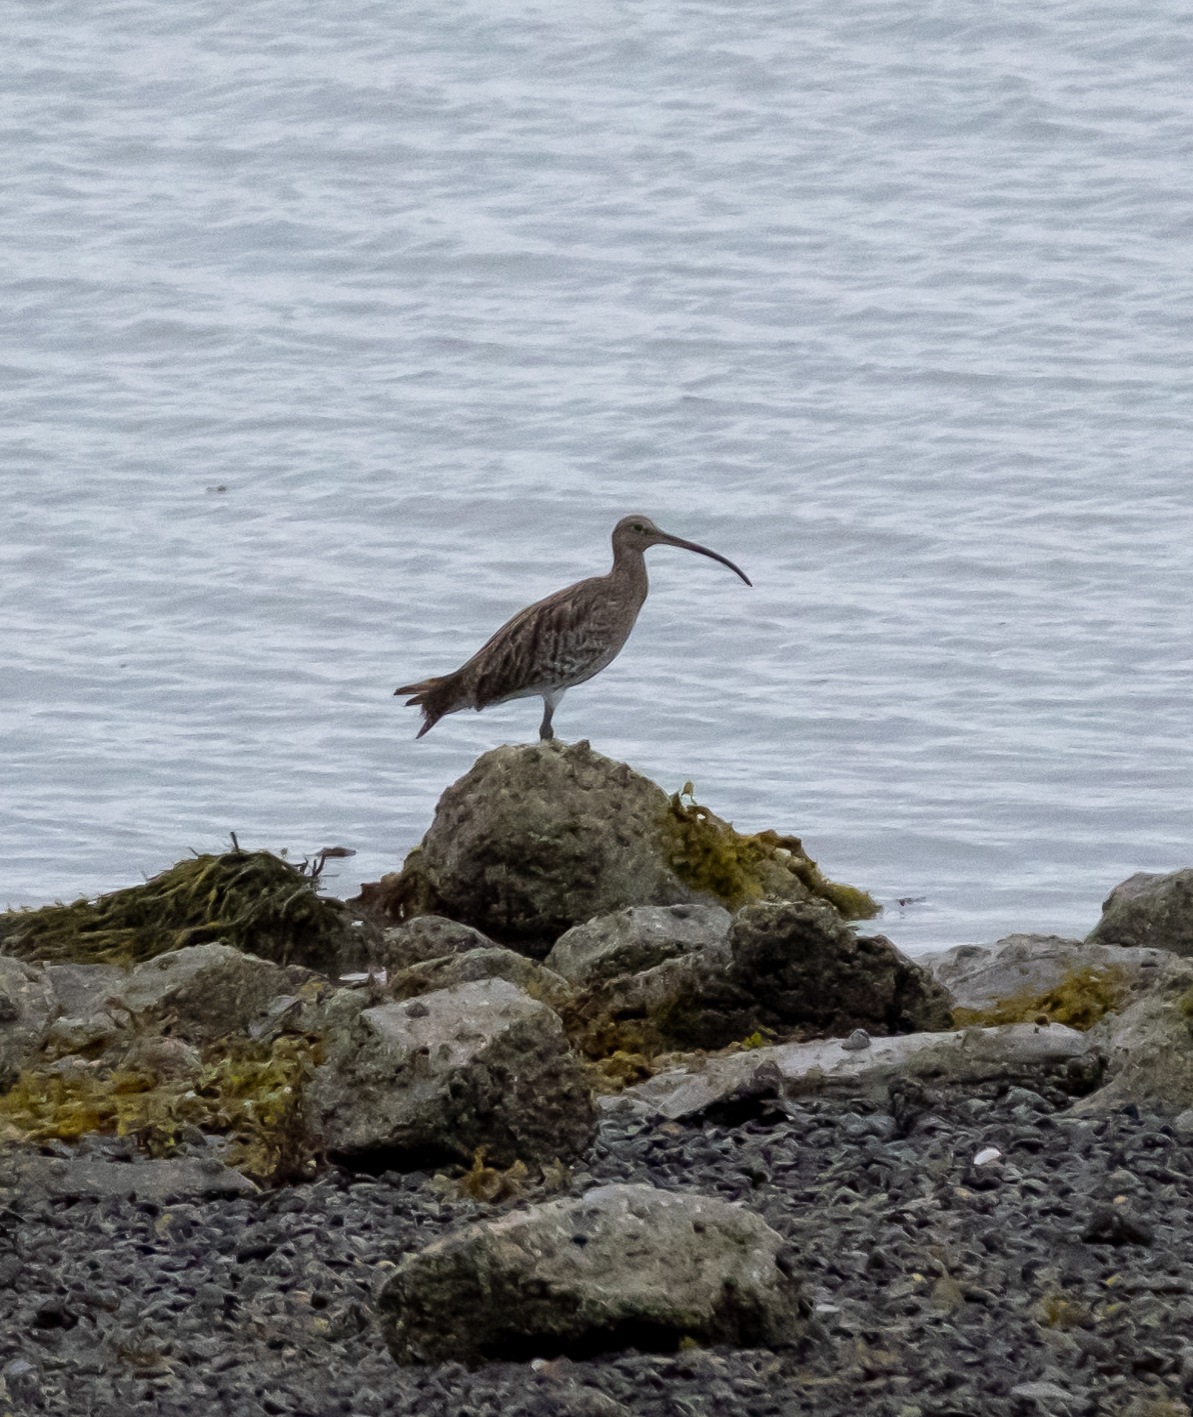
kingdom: Animalia
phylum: Chordata
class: Aves
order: Charadriiformes
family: Scolopacidae
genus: Numenius
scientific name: Numenius arquata
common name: Eurasian curlew
